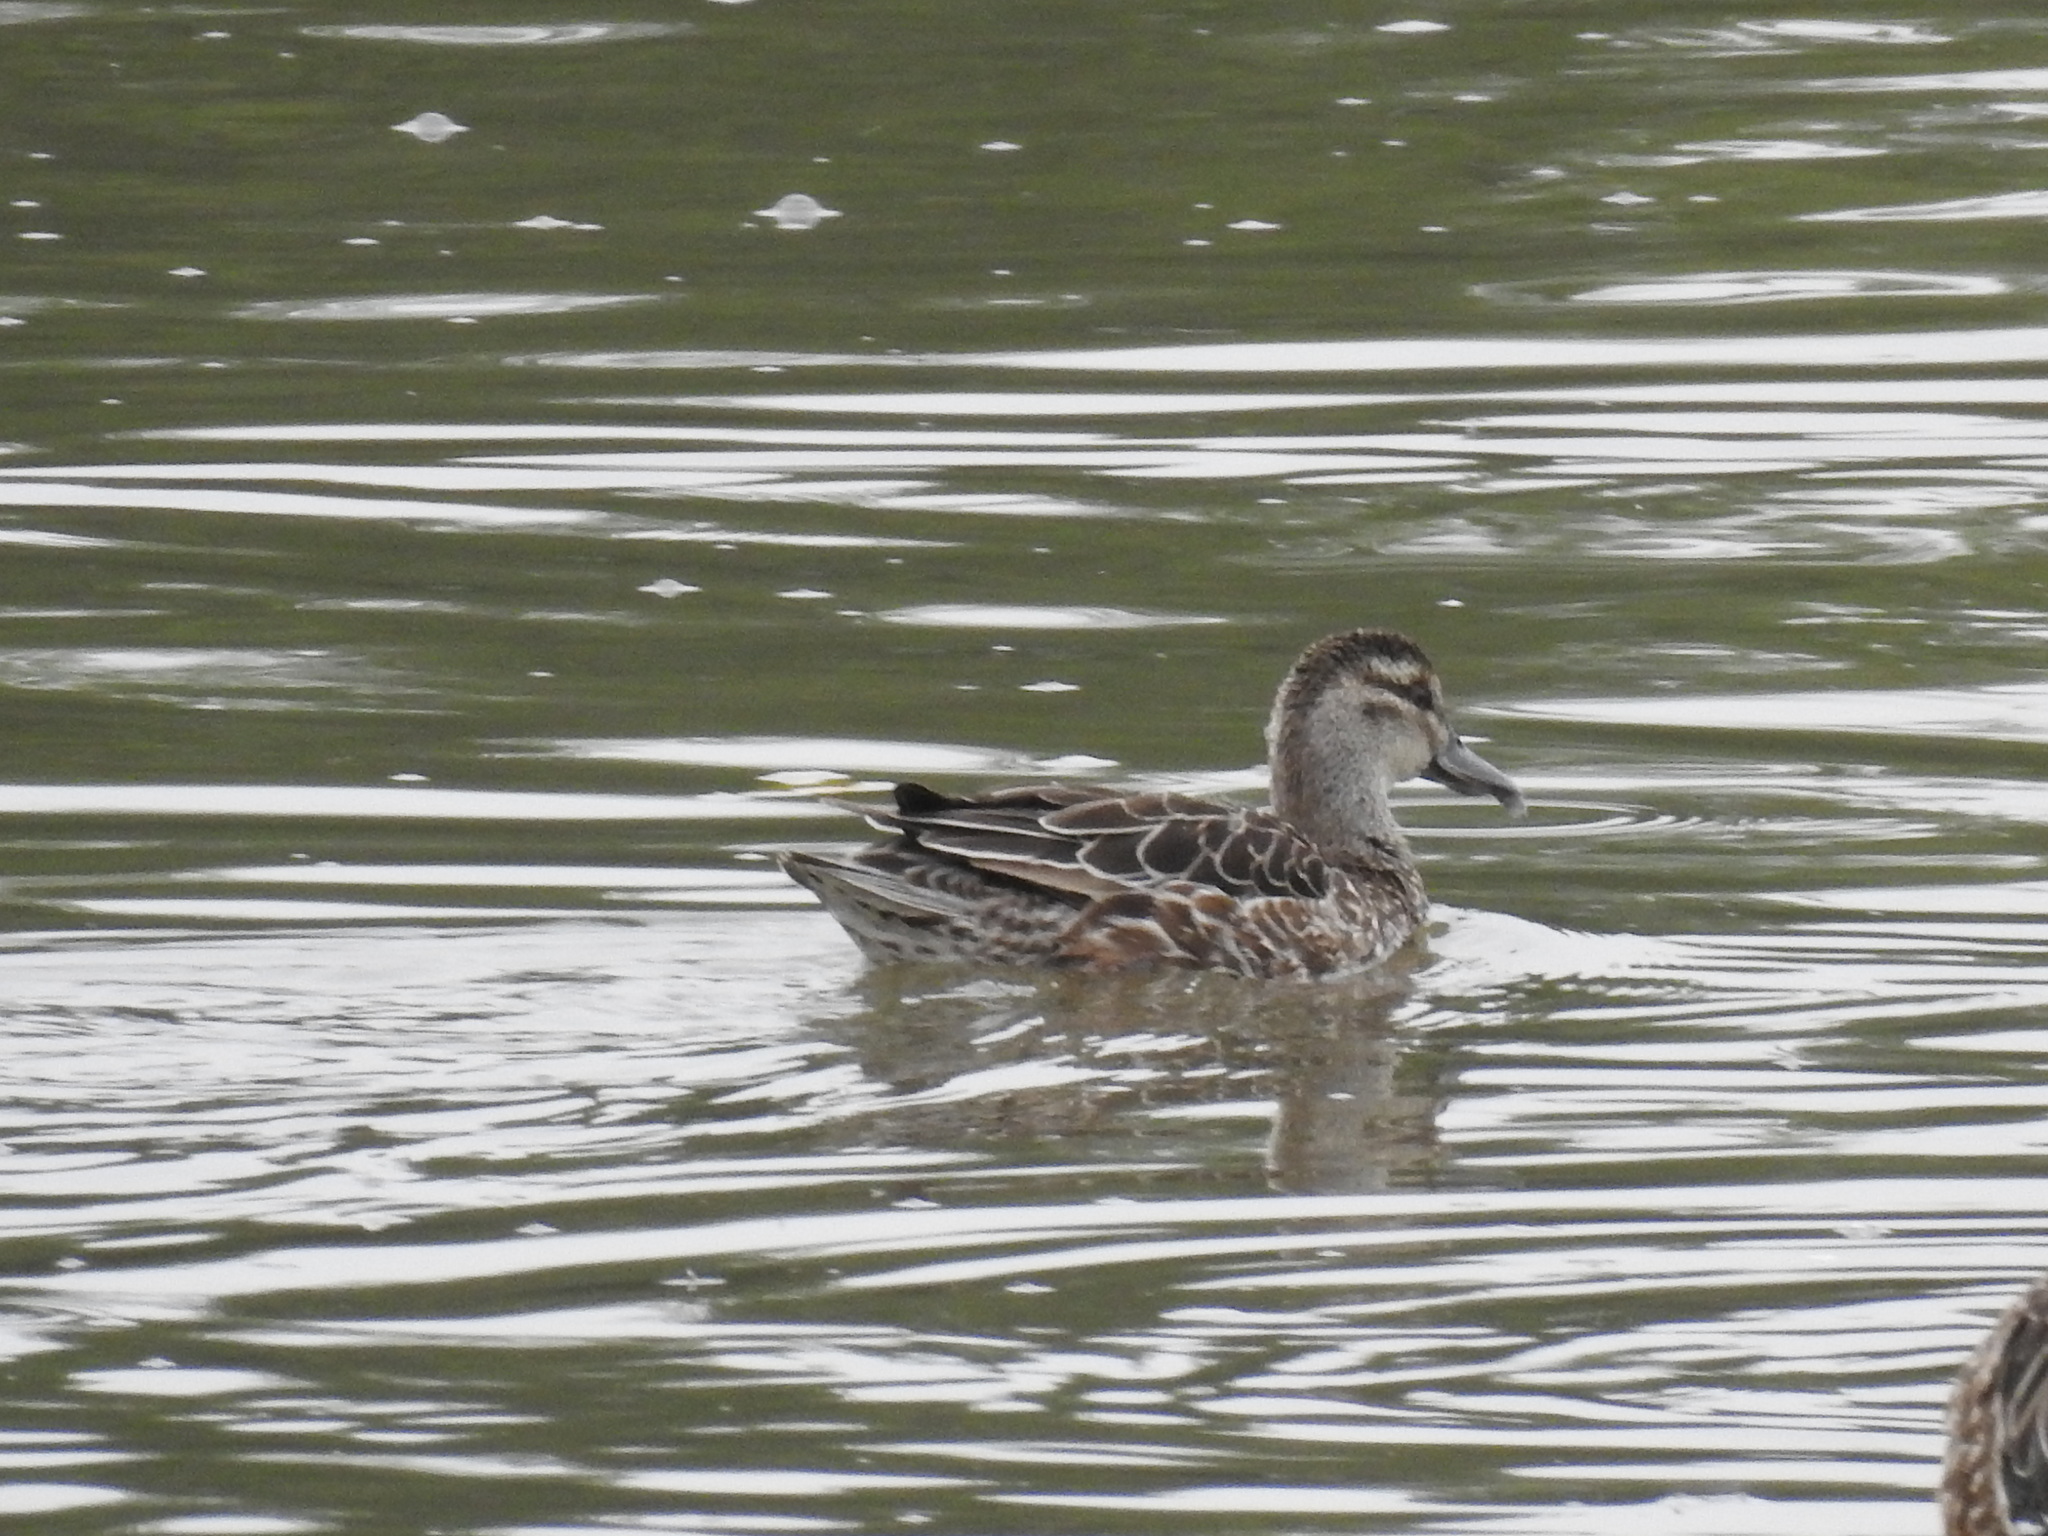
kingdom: Animalia
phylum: Chordata
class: Aves
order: Anseriformes
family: Anatidae
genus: Spatula
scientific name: Spatula querquedula
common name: Garganey
